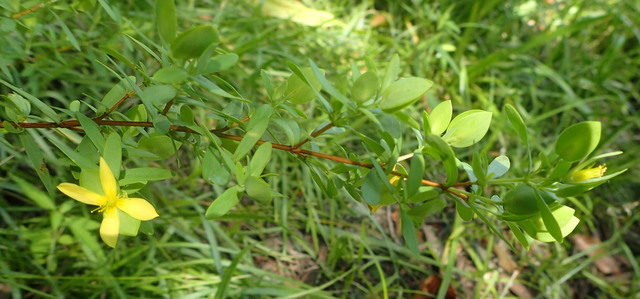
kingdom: Plantae
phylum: Tracheophyta
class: Magnoliopsida
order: Malpighiales
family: Hypericaceae
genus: Hypericum
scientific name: Hypericum hypericoides
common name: St. andrew's cross
